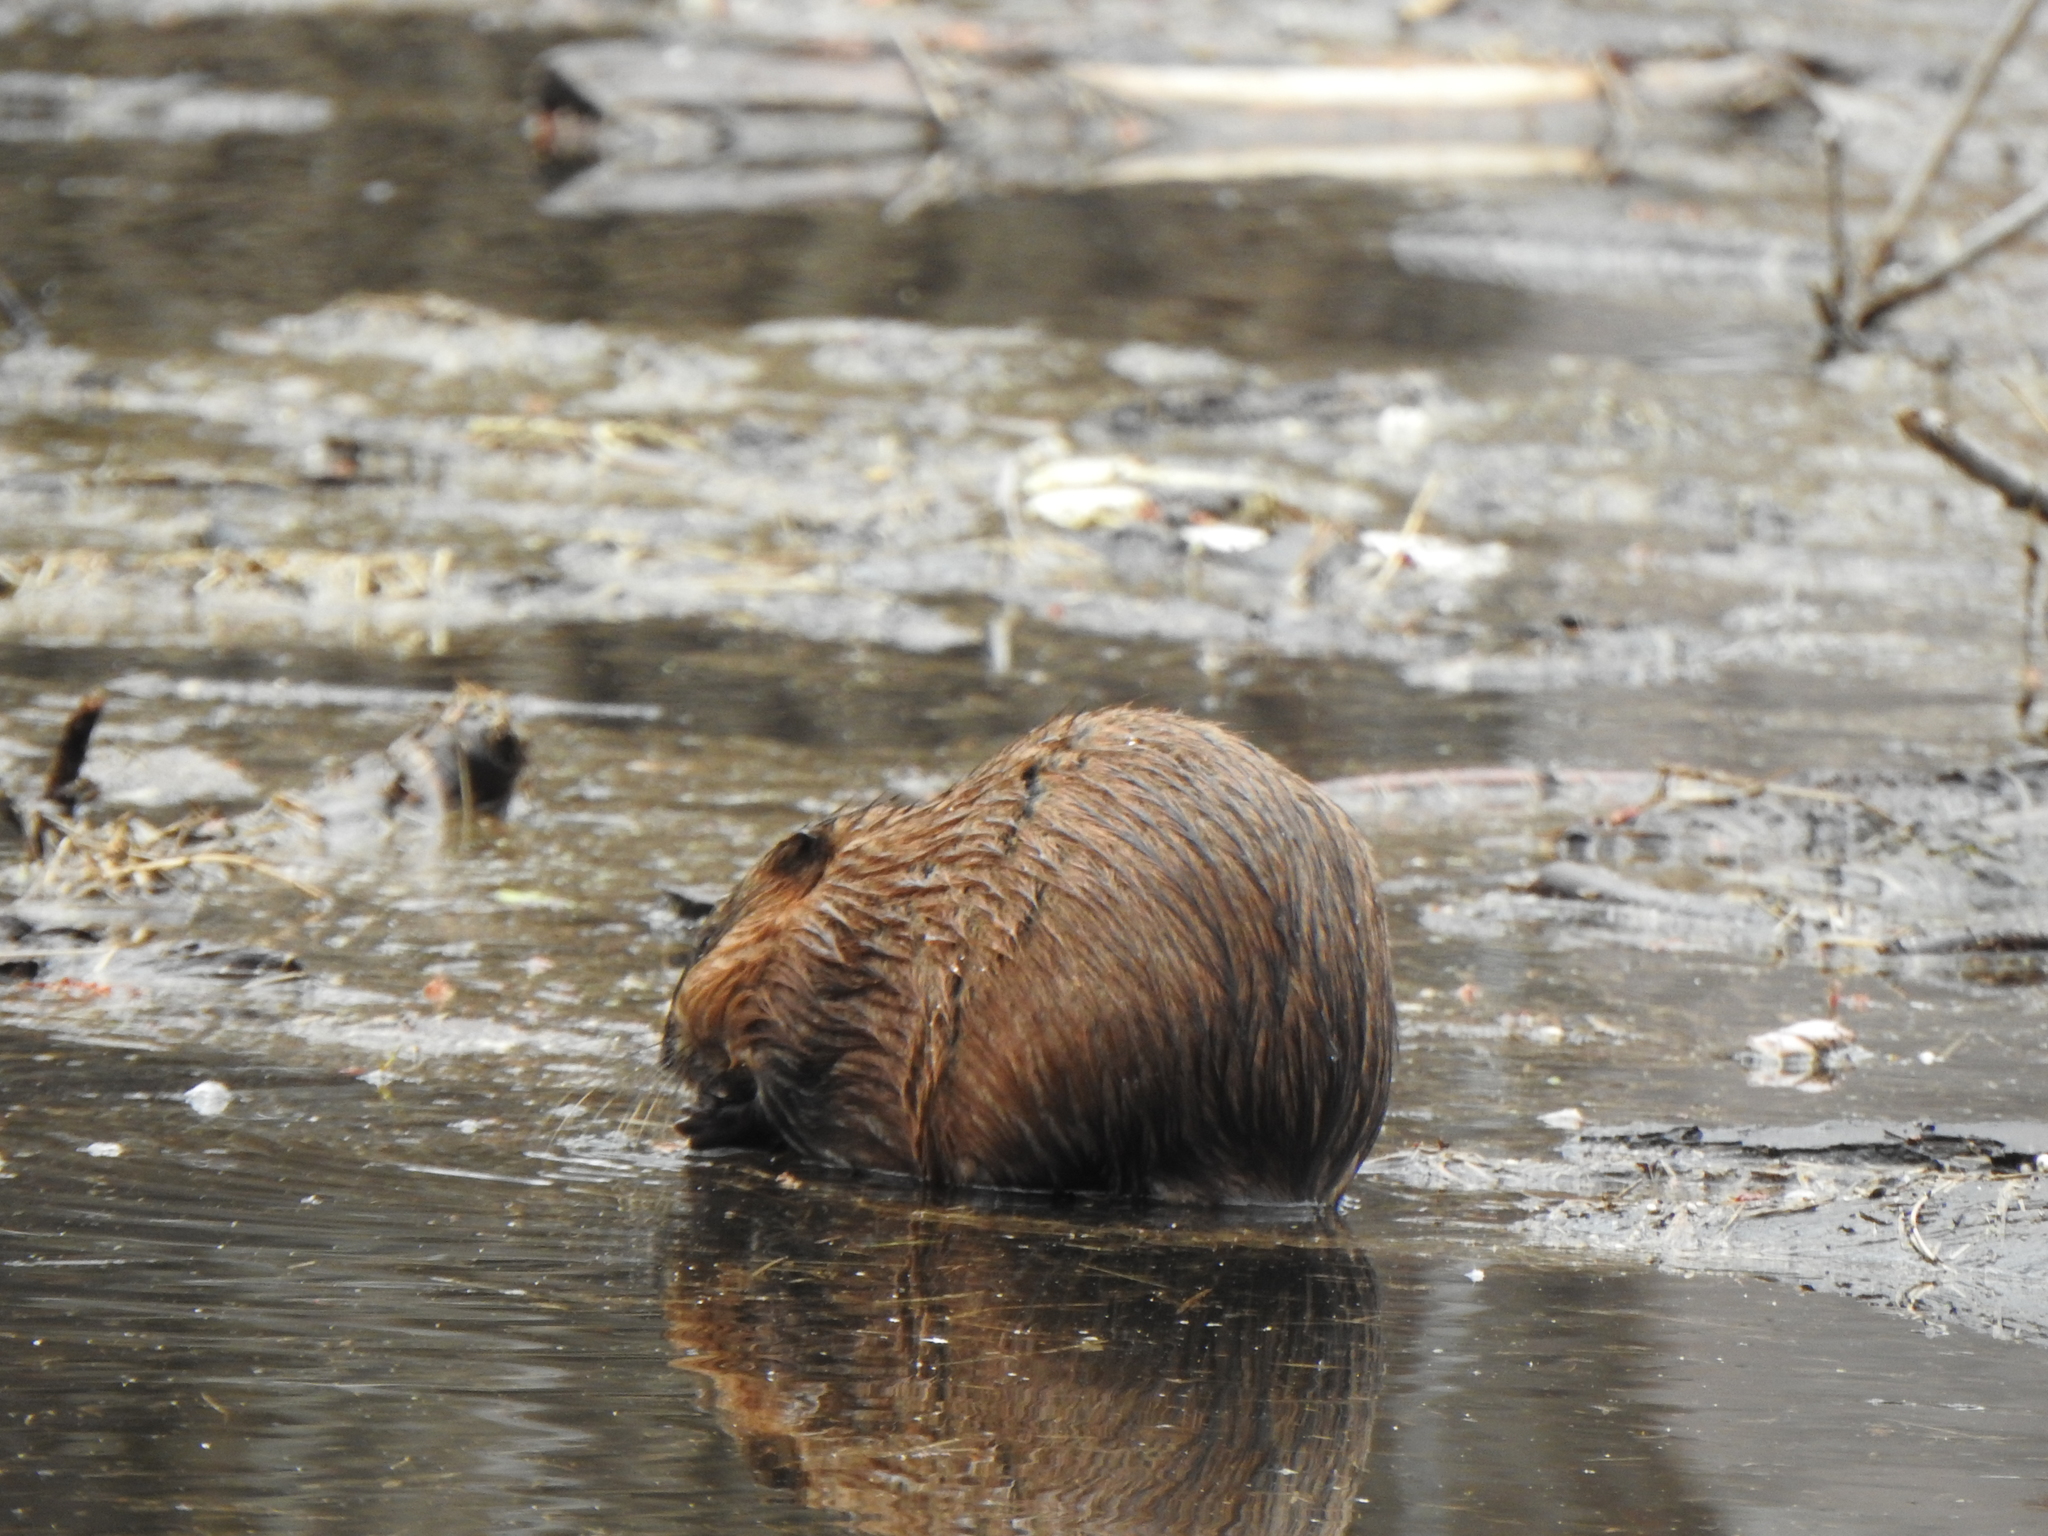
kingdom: Animalia
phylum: Chordata
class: Mammalia
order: Rodentia
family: Cricetidae
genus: Ondatra
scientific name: Ondatra zibethicus
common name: Muskrat
